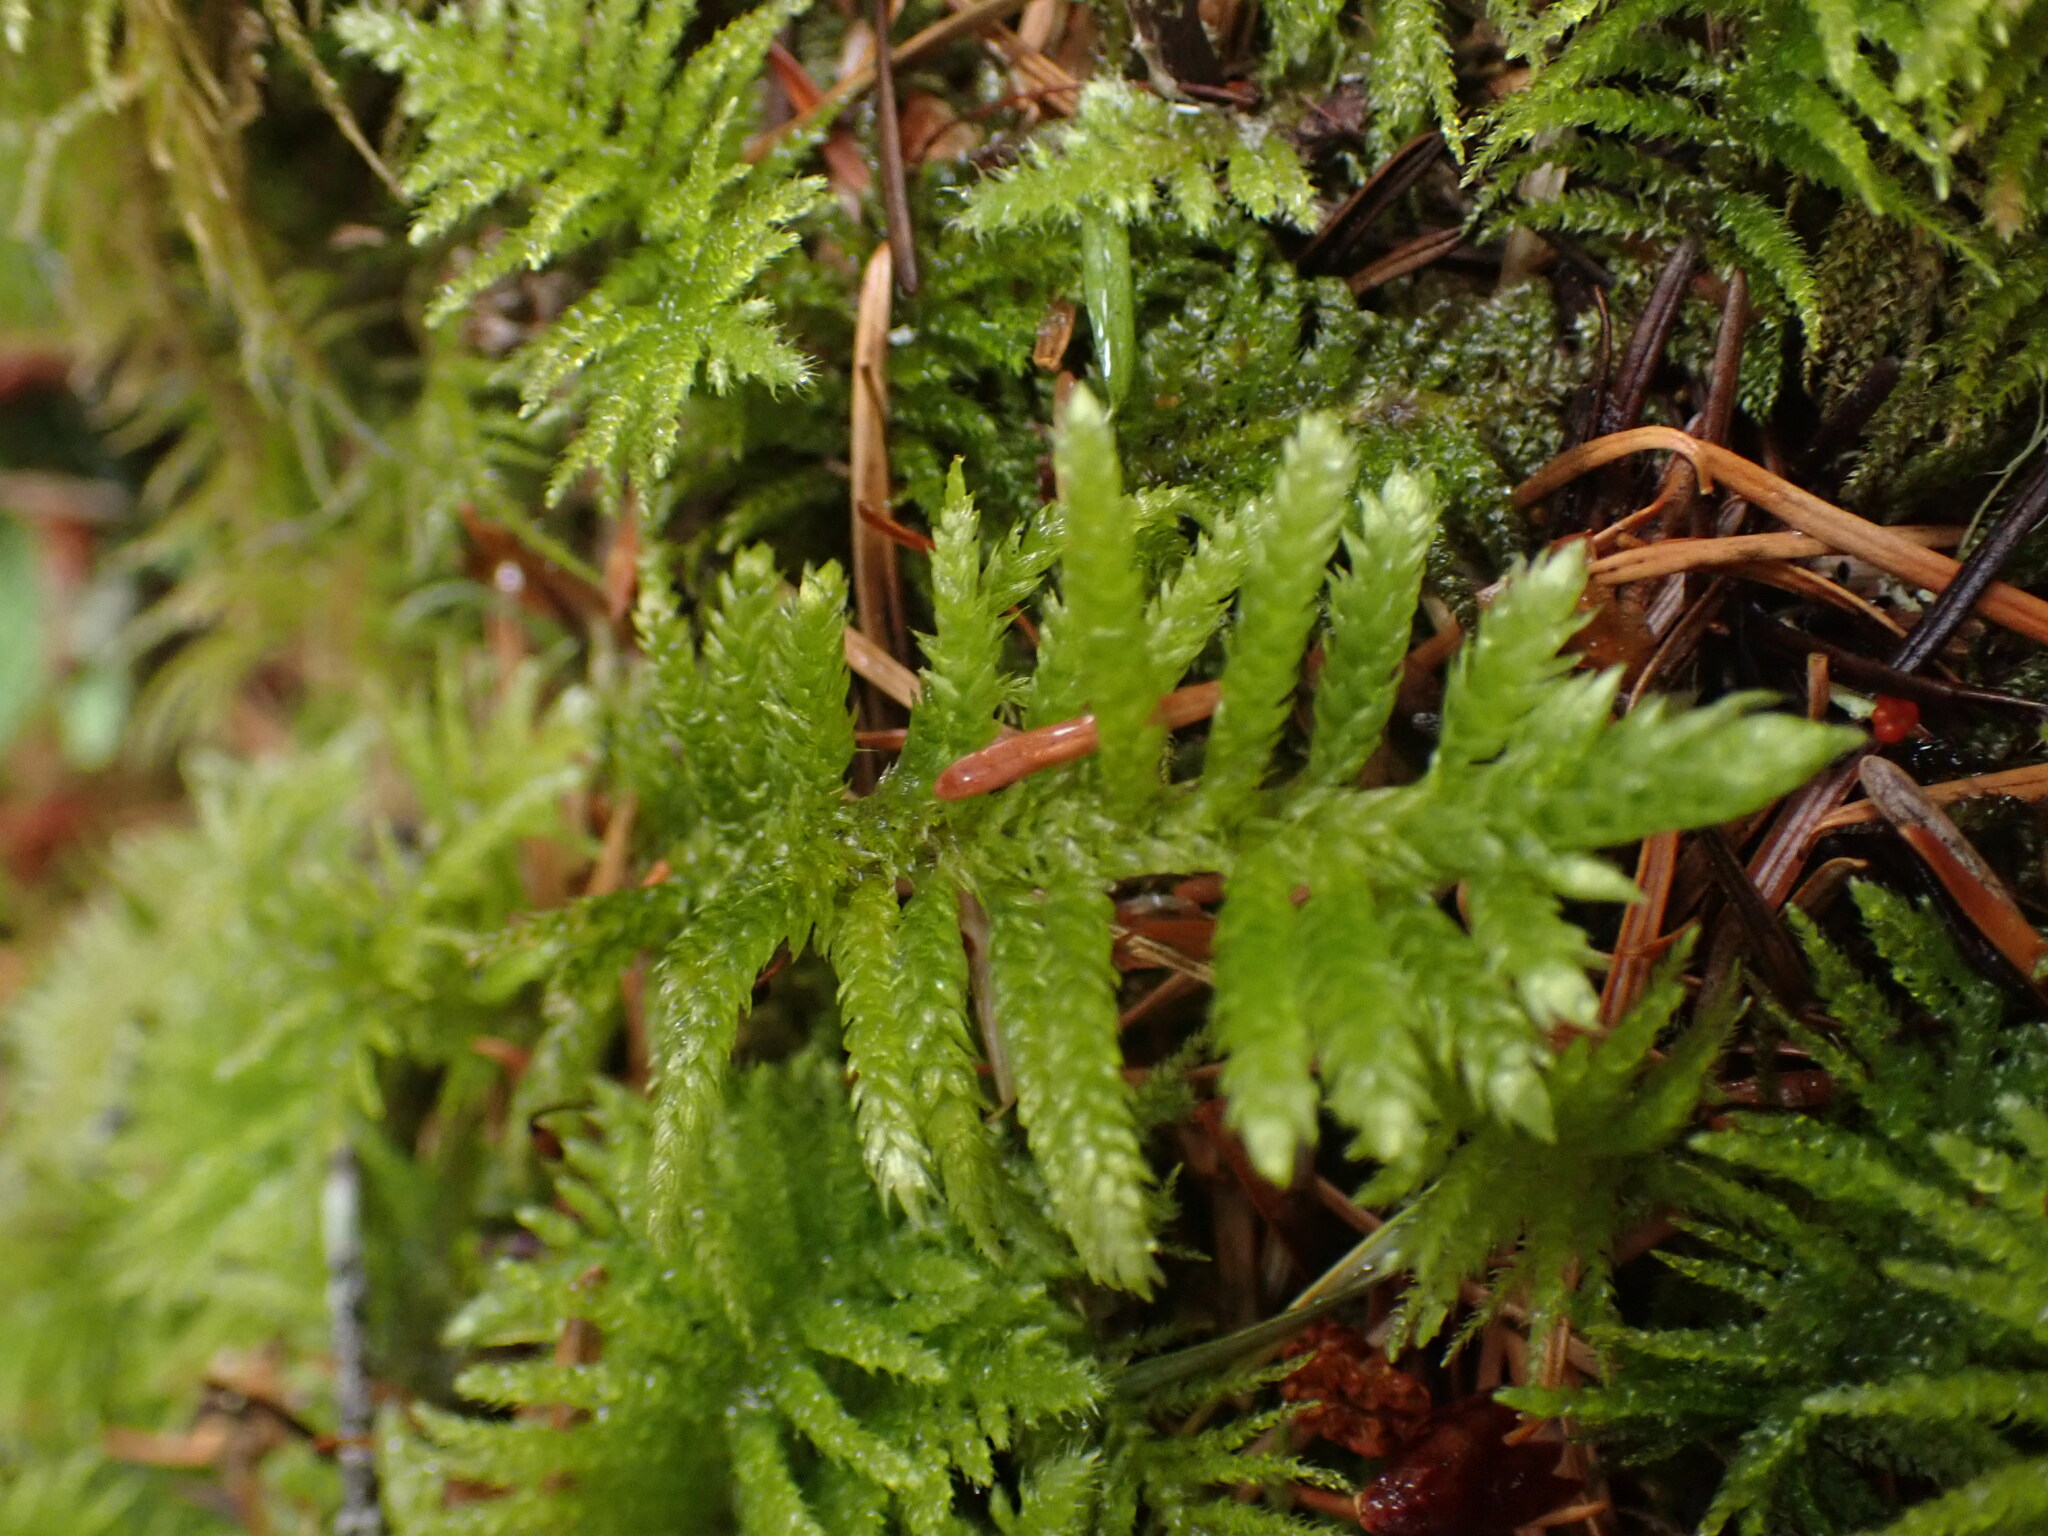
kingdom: Plantae
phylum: Bryophyta
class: Bryopsida
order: Hypnales
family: Brachytheciaceae
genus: Homalothecium
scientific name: Homalothecium megaptilum
